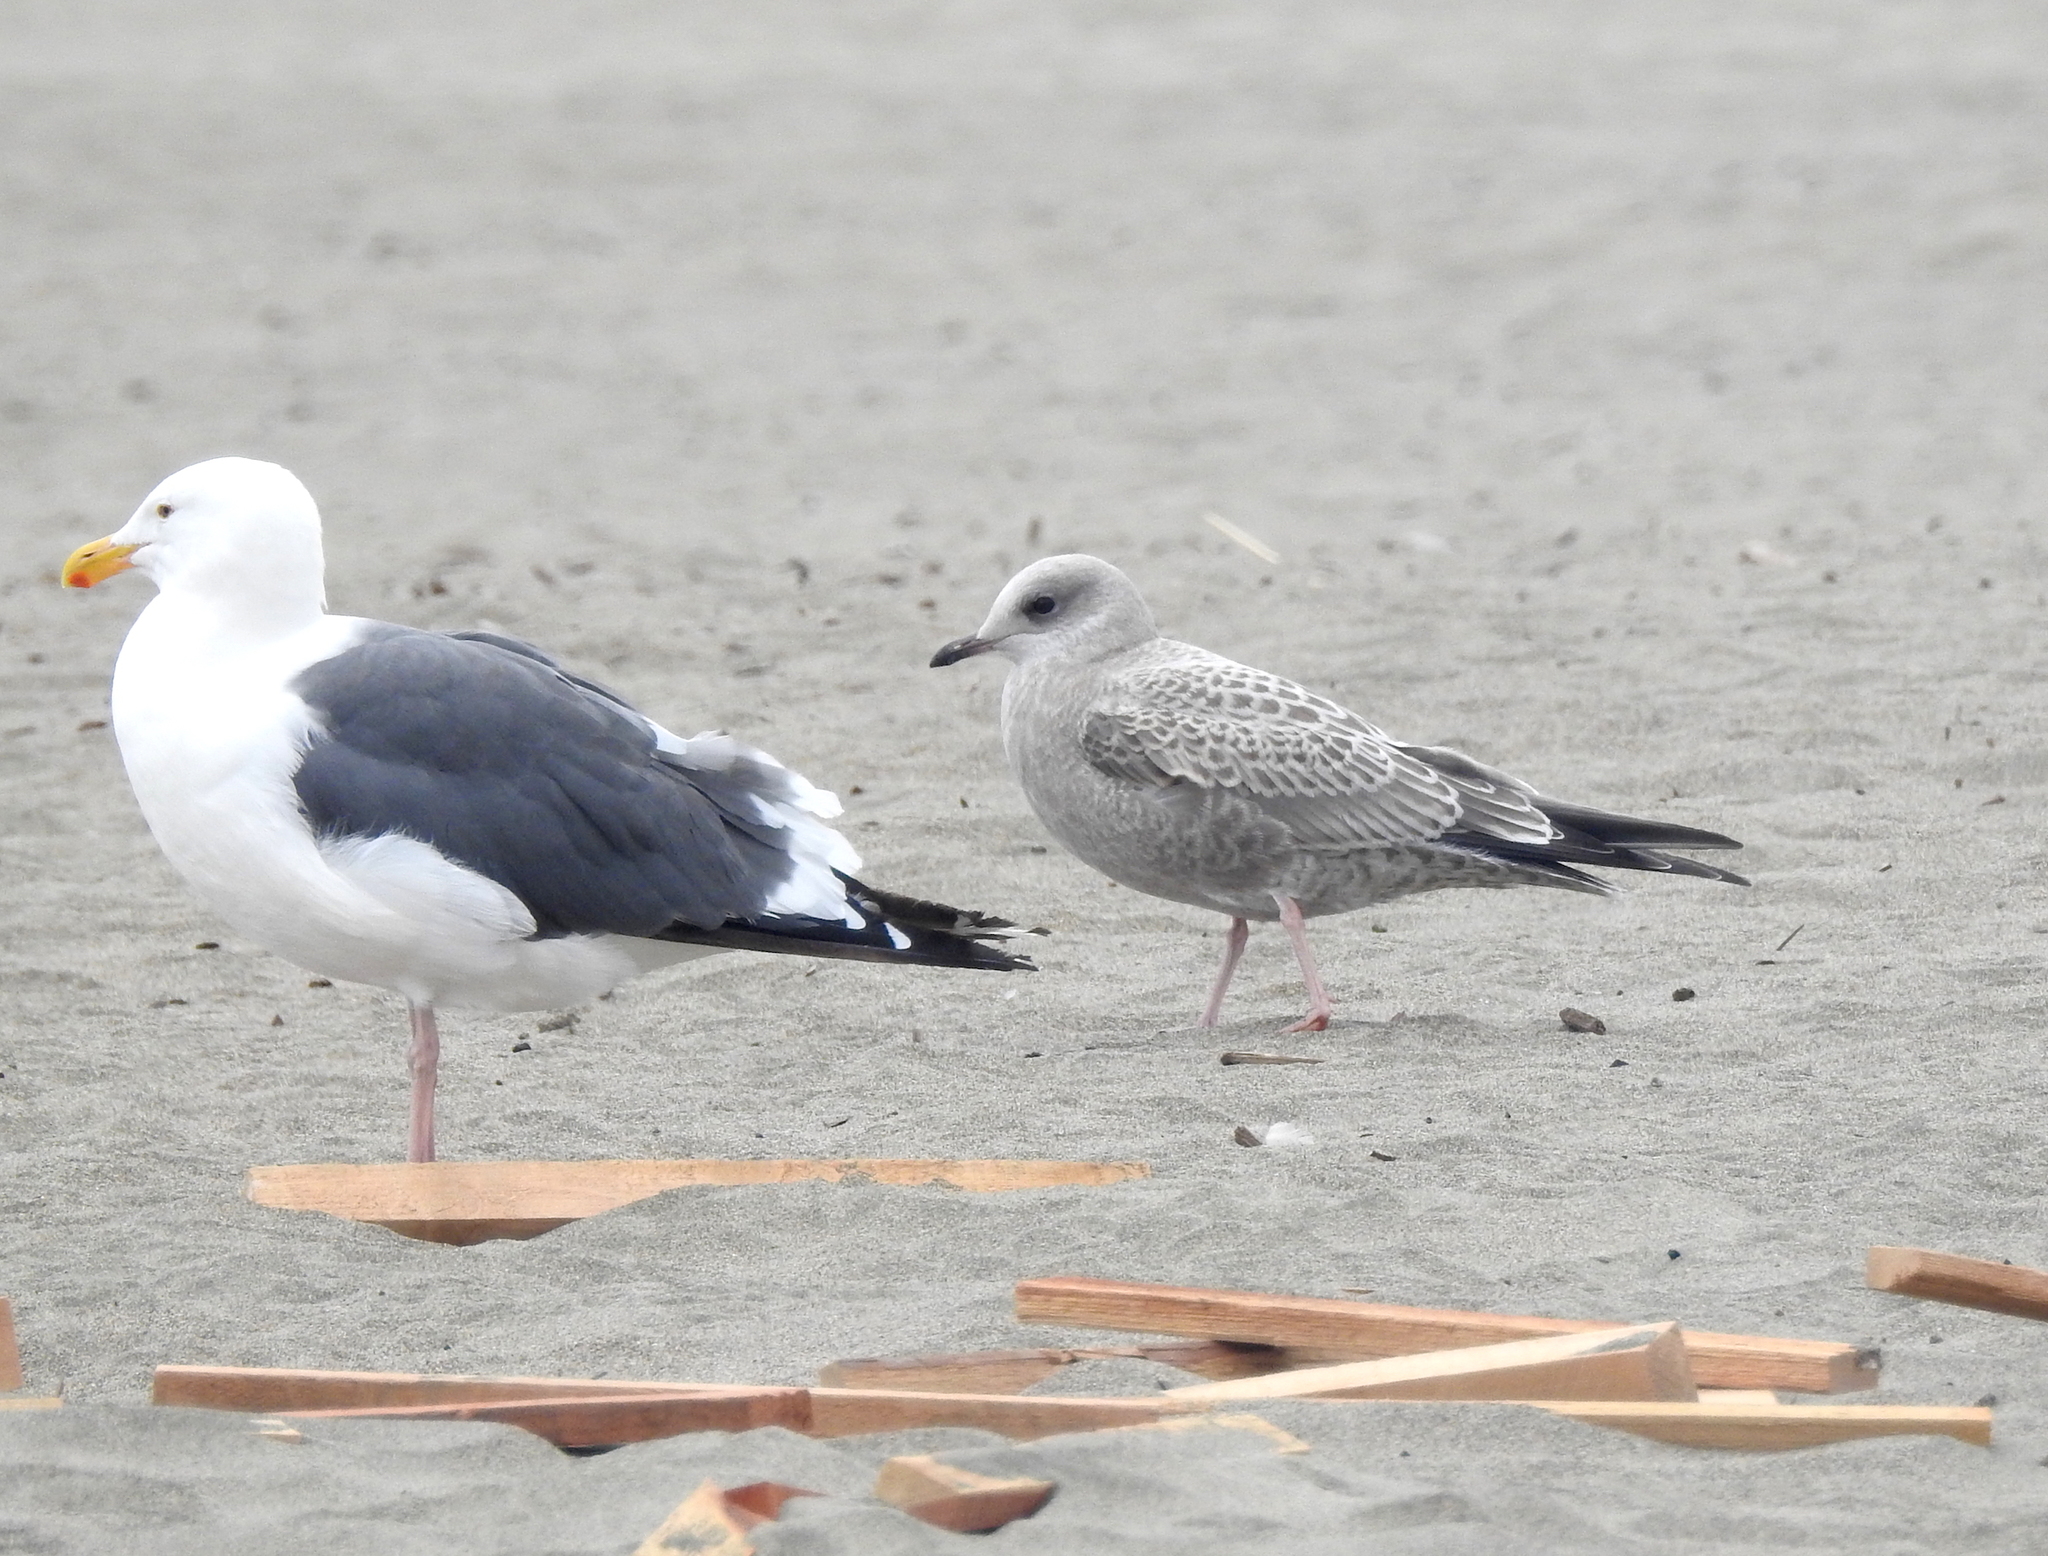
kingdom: Animalia
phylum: Chordata
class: Aves
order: Charadriiformes
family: Laridae
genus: Larus
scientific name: Larus brachyrhynchus
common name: Short-billed gull
